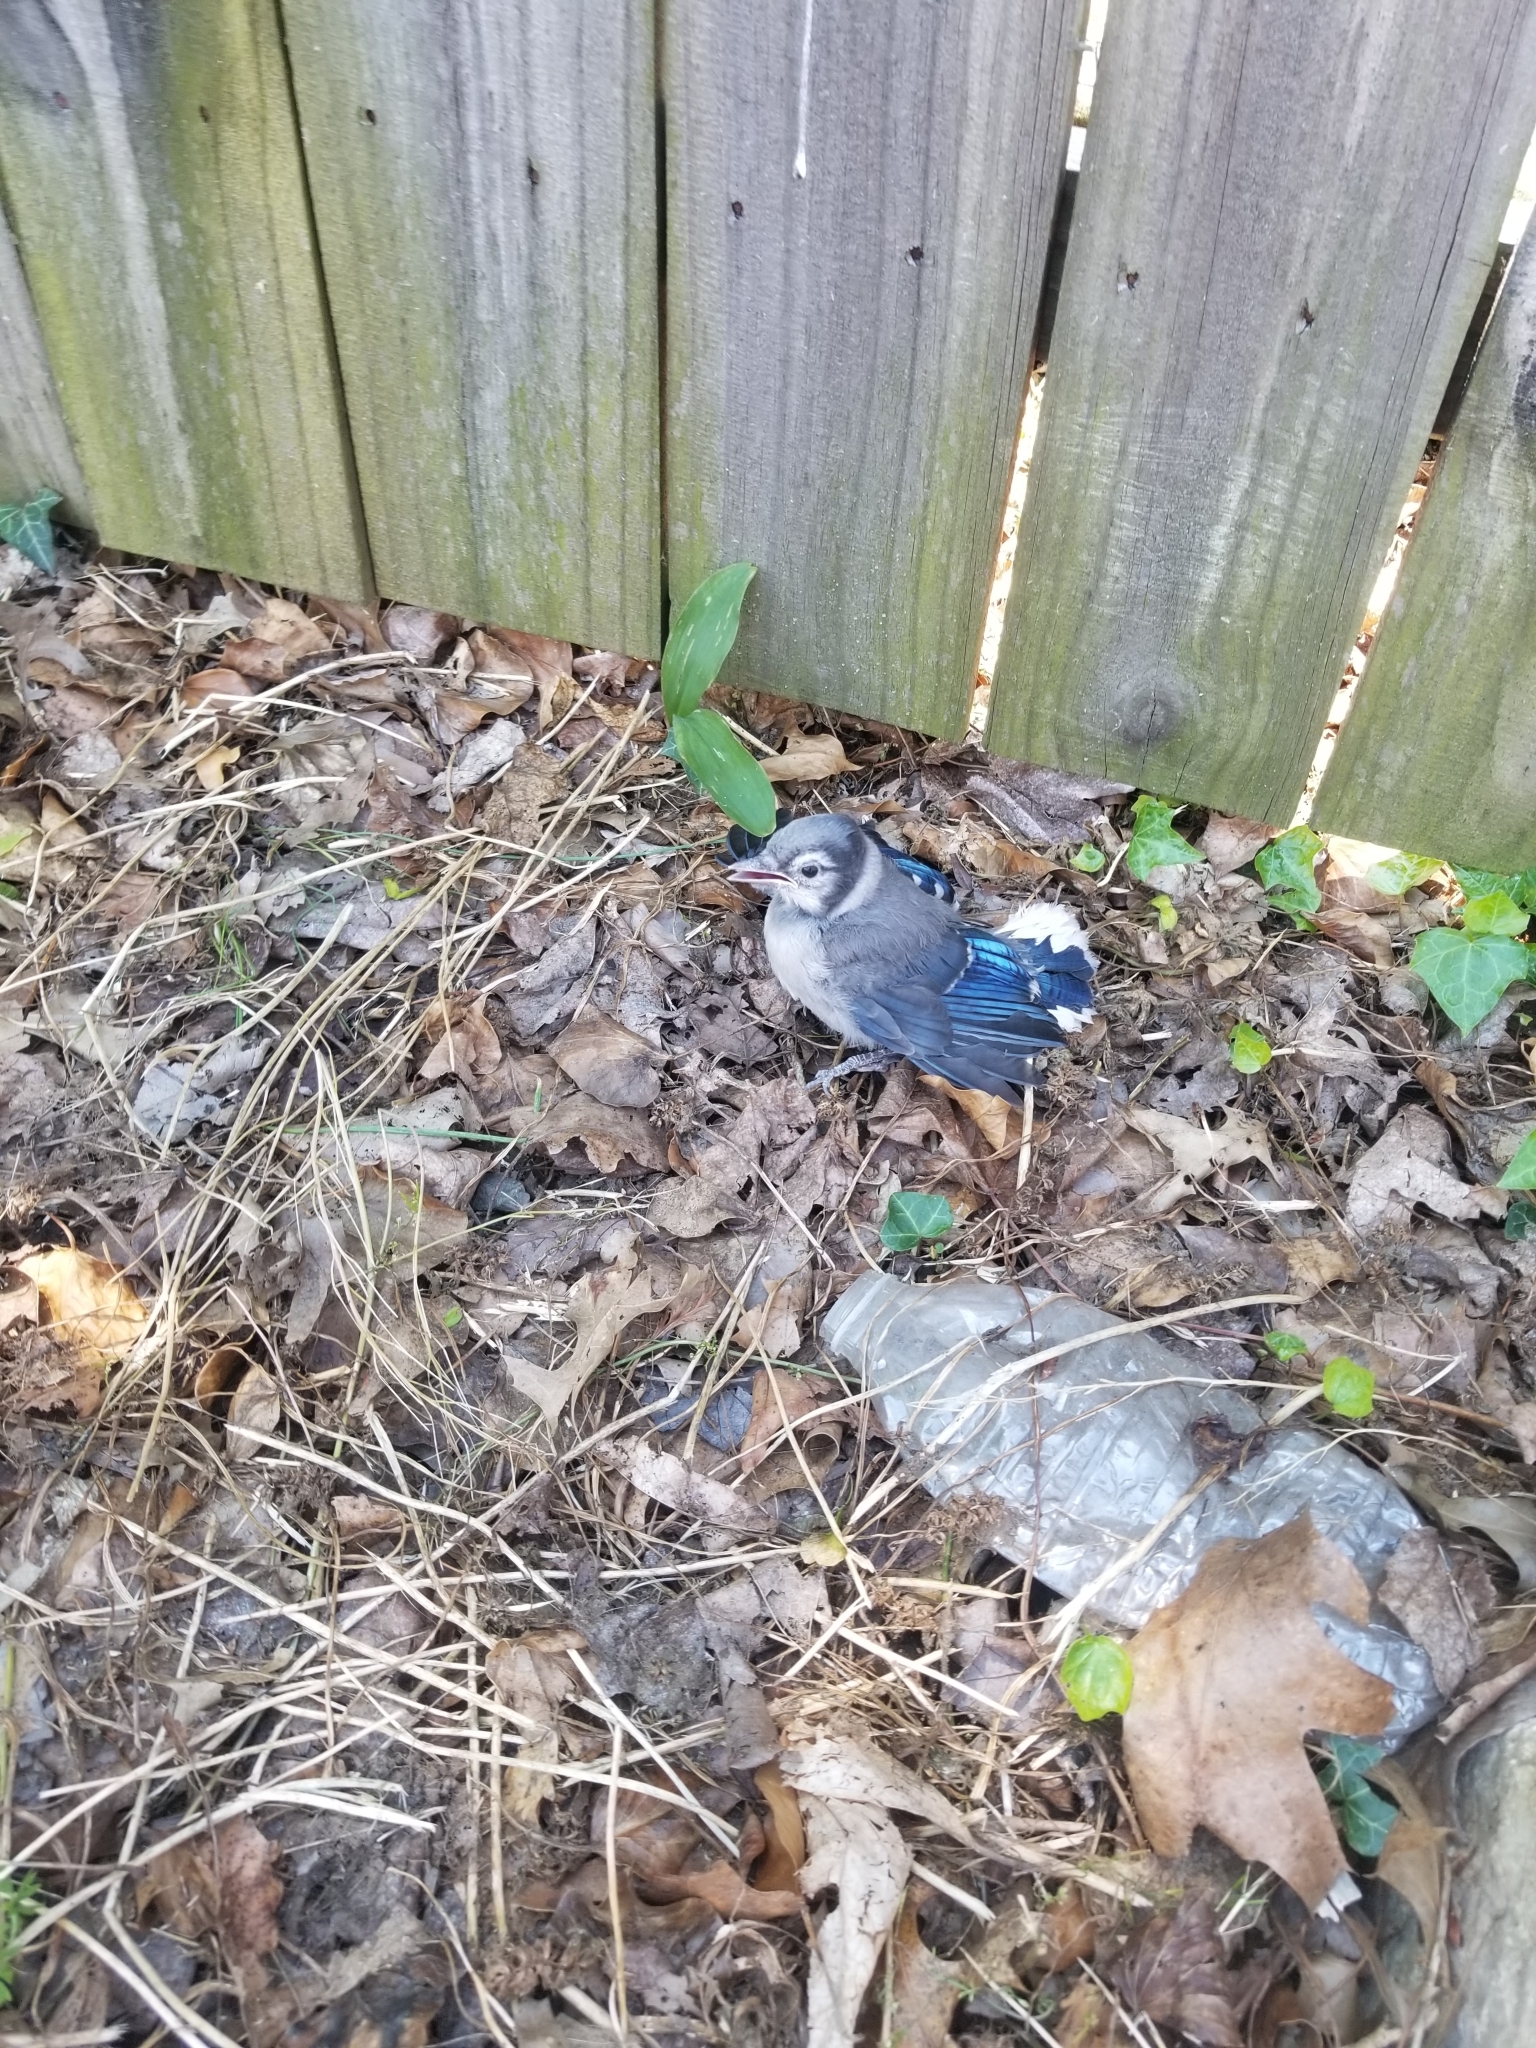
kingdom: Animalia
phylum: Chordata
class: Aves
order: Passeriformes
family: Corvidae
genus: Cyanocitta
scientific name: Cyanocitta cristata
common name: Blue jay
